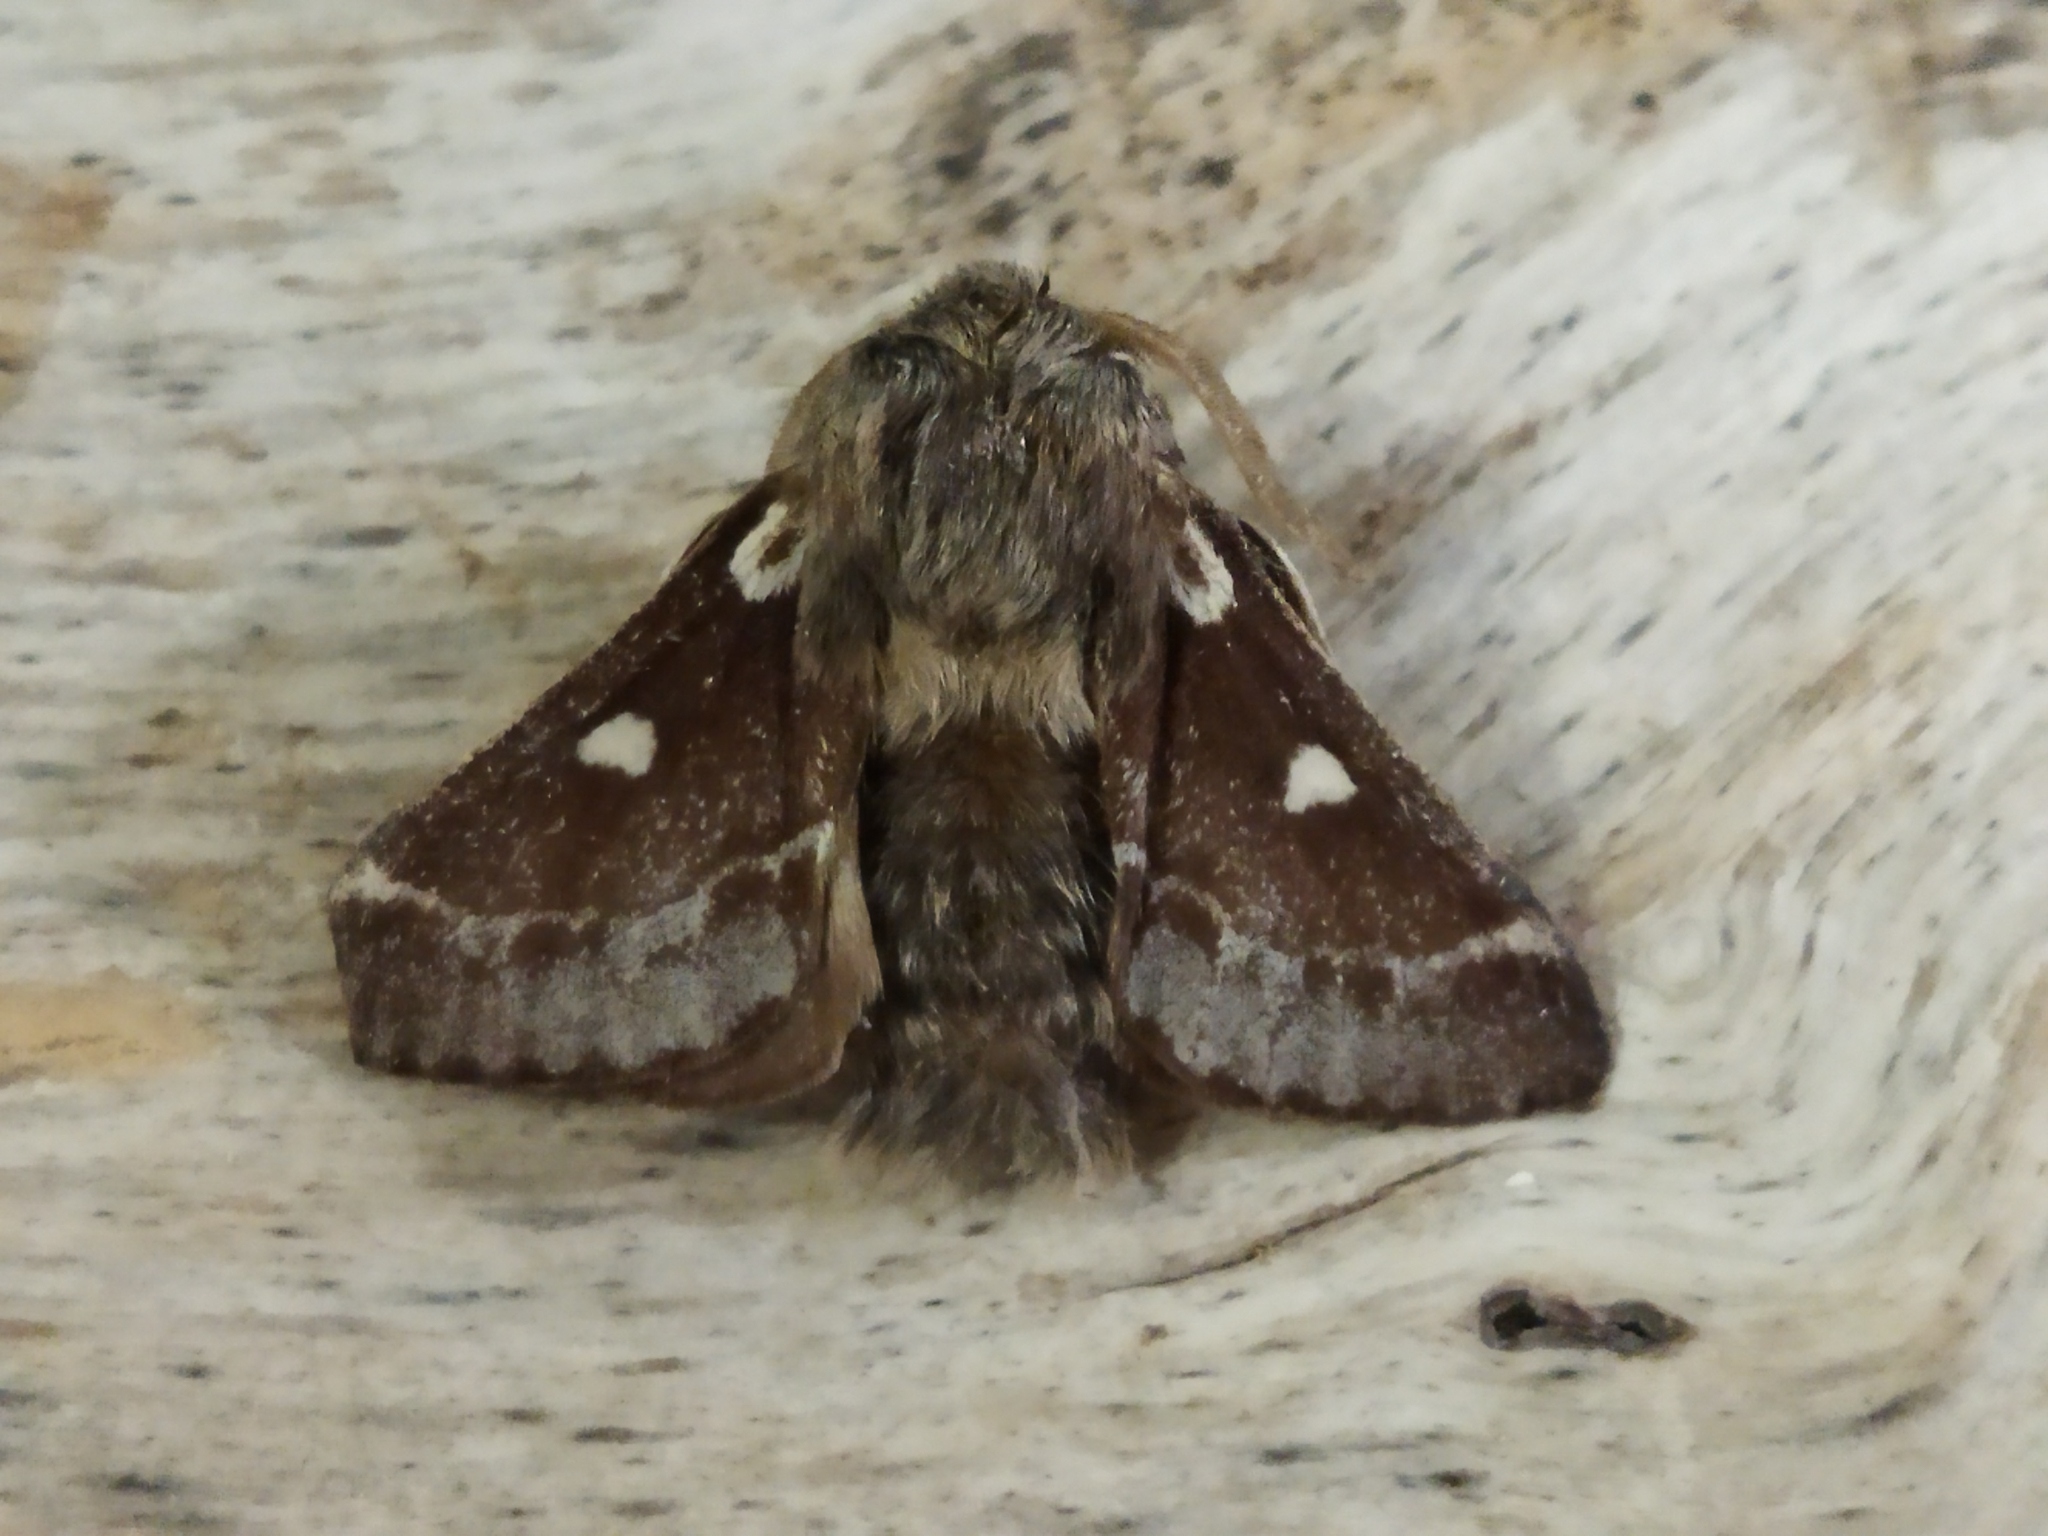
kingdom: Animalia
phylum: Arthropoda
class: Insecta
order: Lepidoptera
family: Lasiocampidae
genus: Eriogaster
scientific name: Eriogaster lanestris
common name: Small eggar
